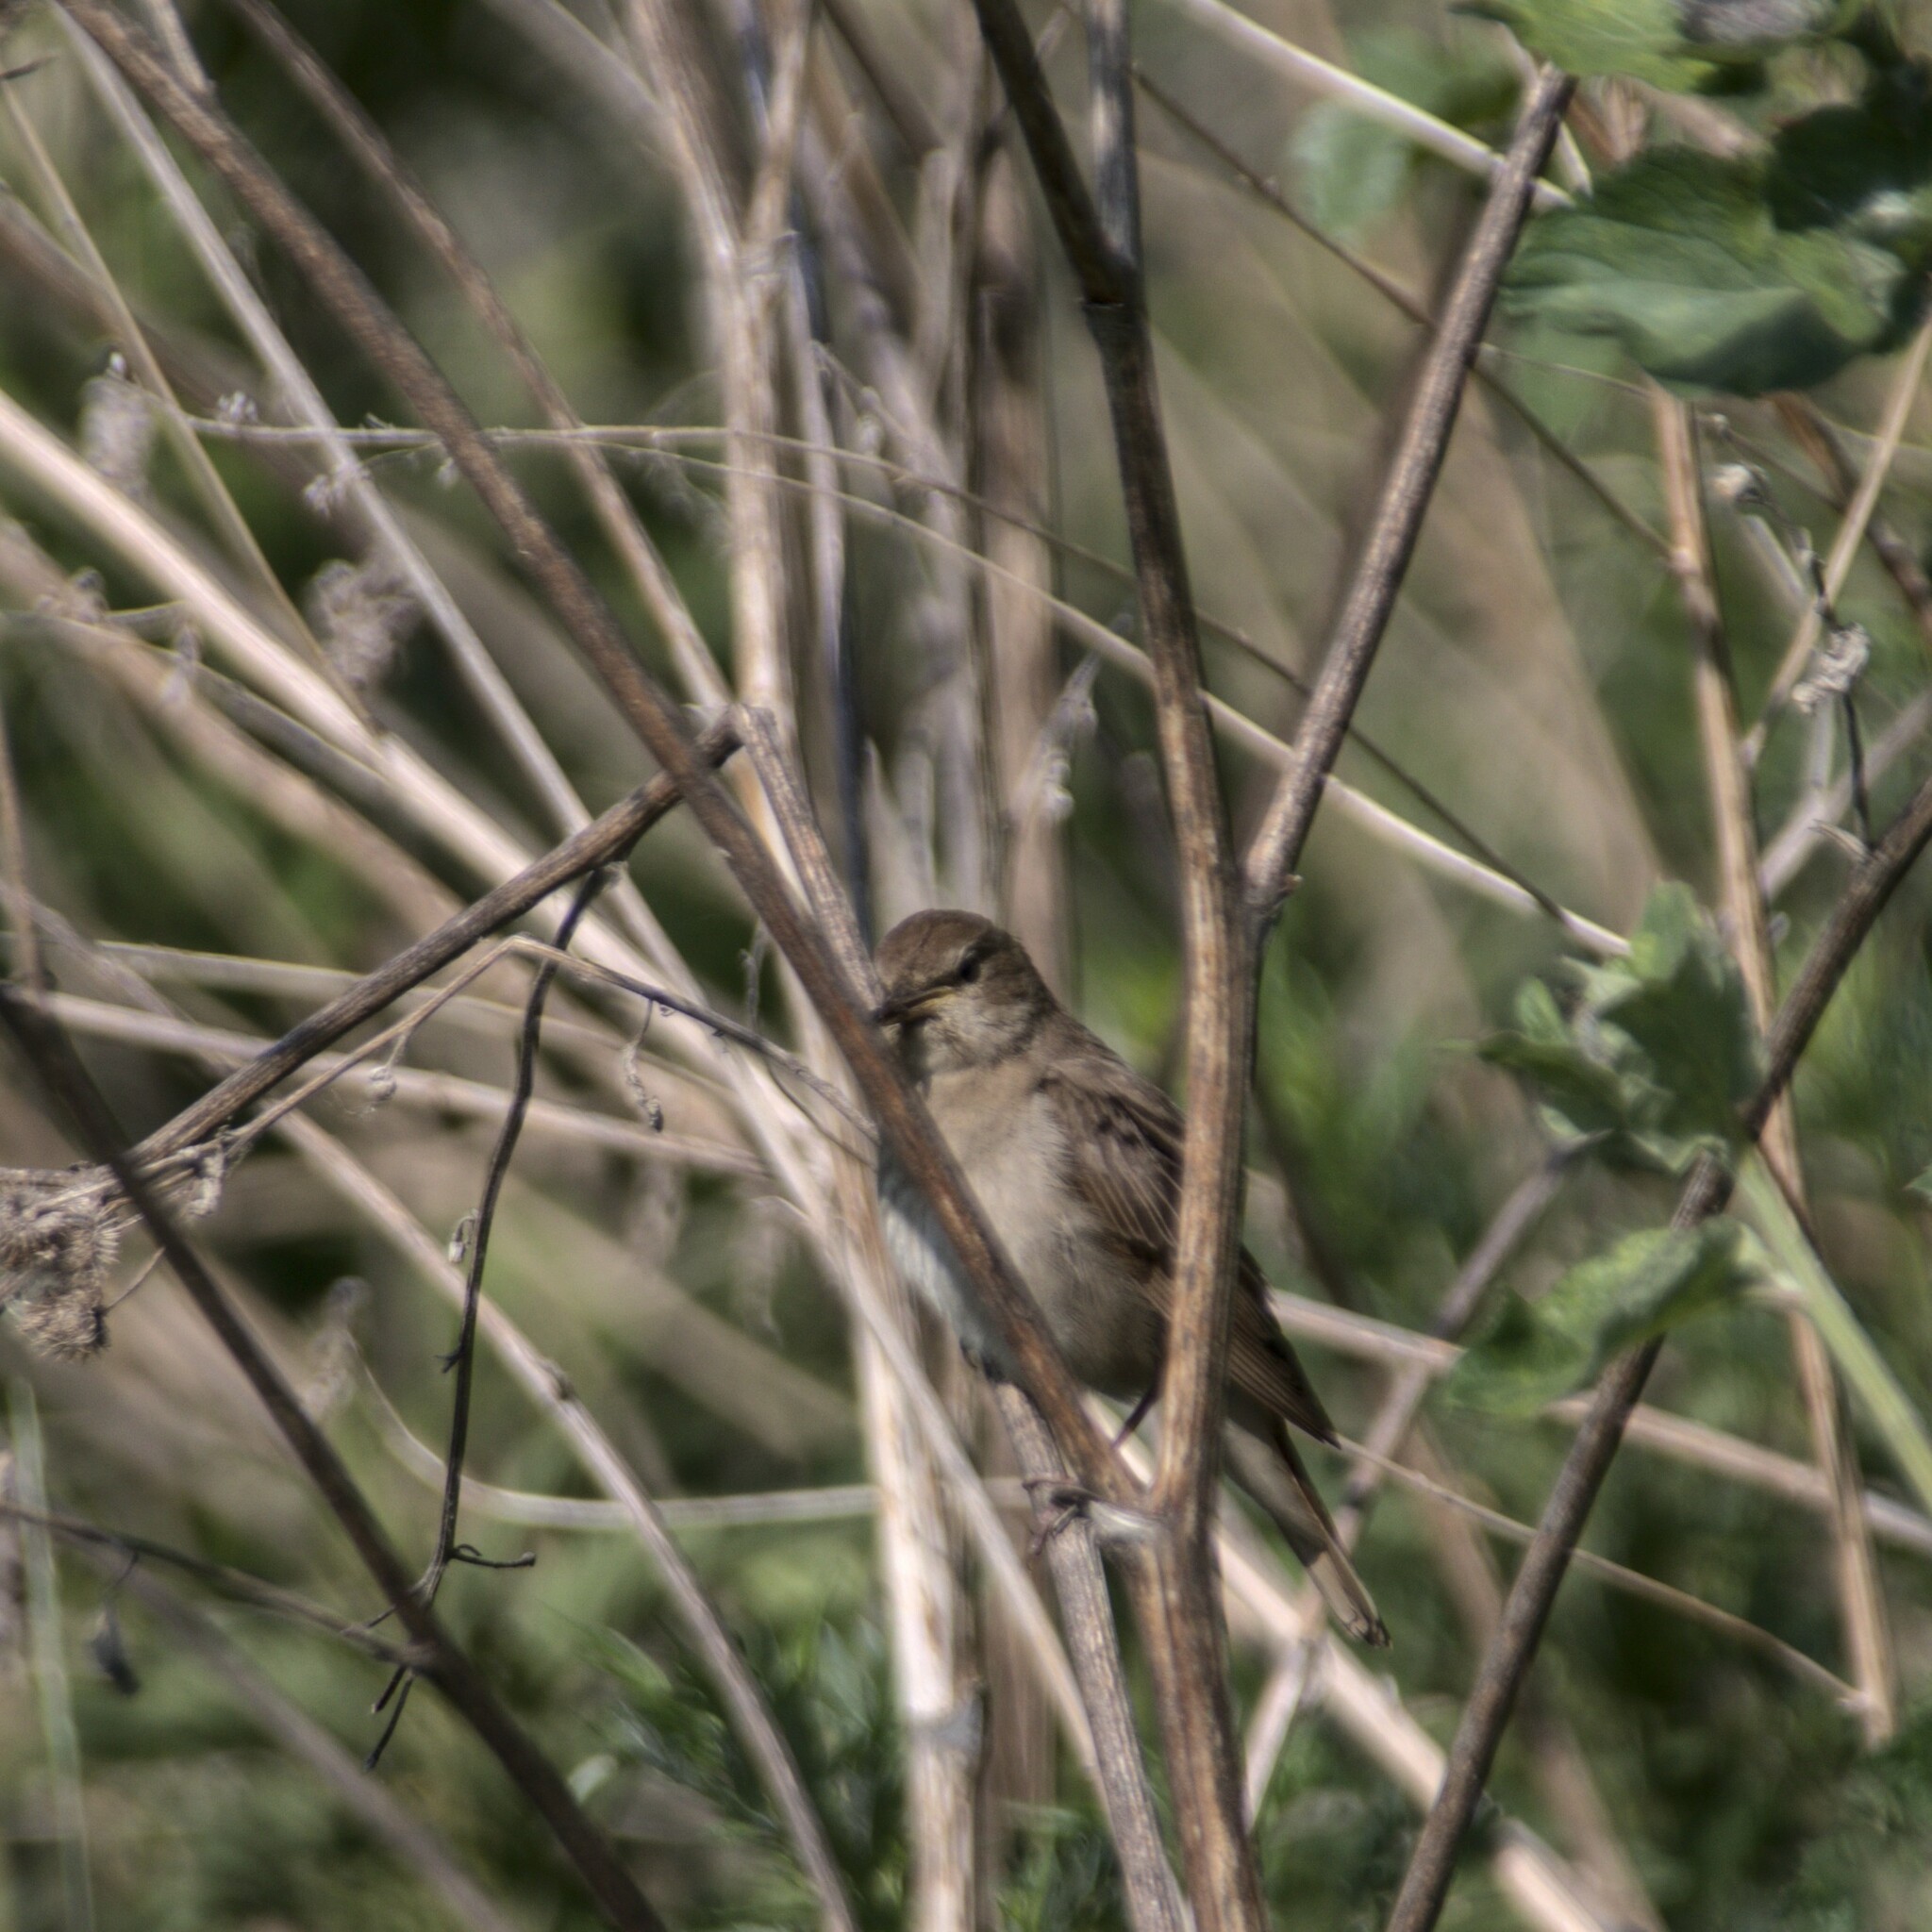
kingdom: Animalia
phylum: Chordata
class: Aves
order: Passeriformes
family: Muscicapidae
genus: Luscinia
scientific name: Luscinia luscinia
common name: Thrush nightingale
